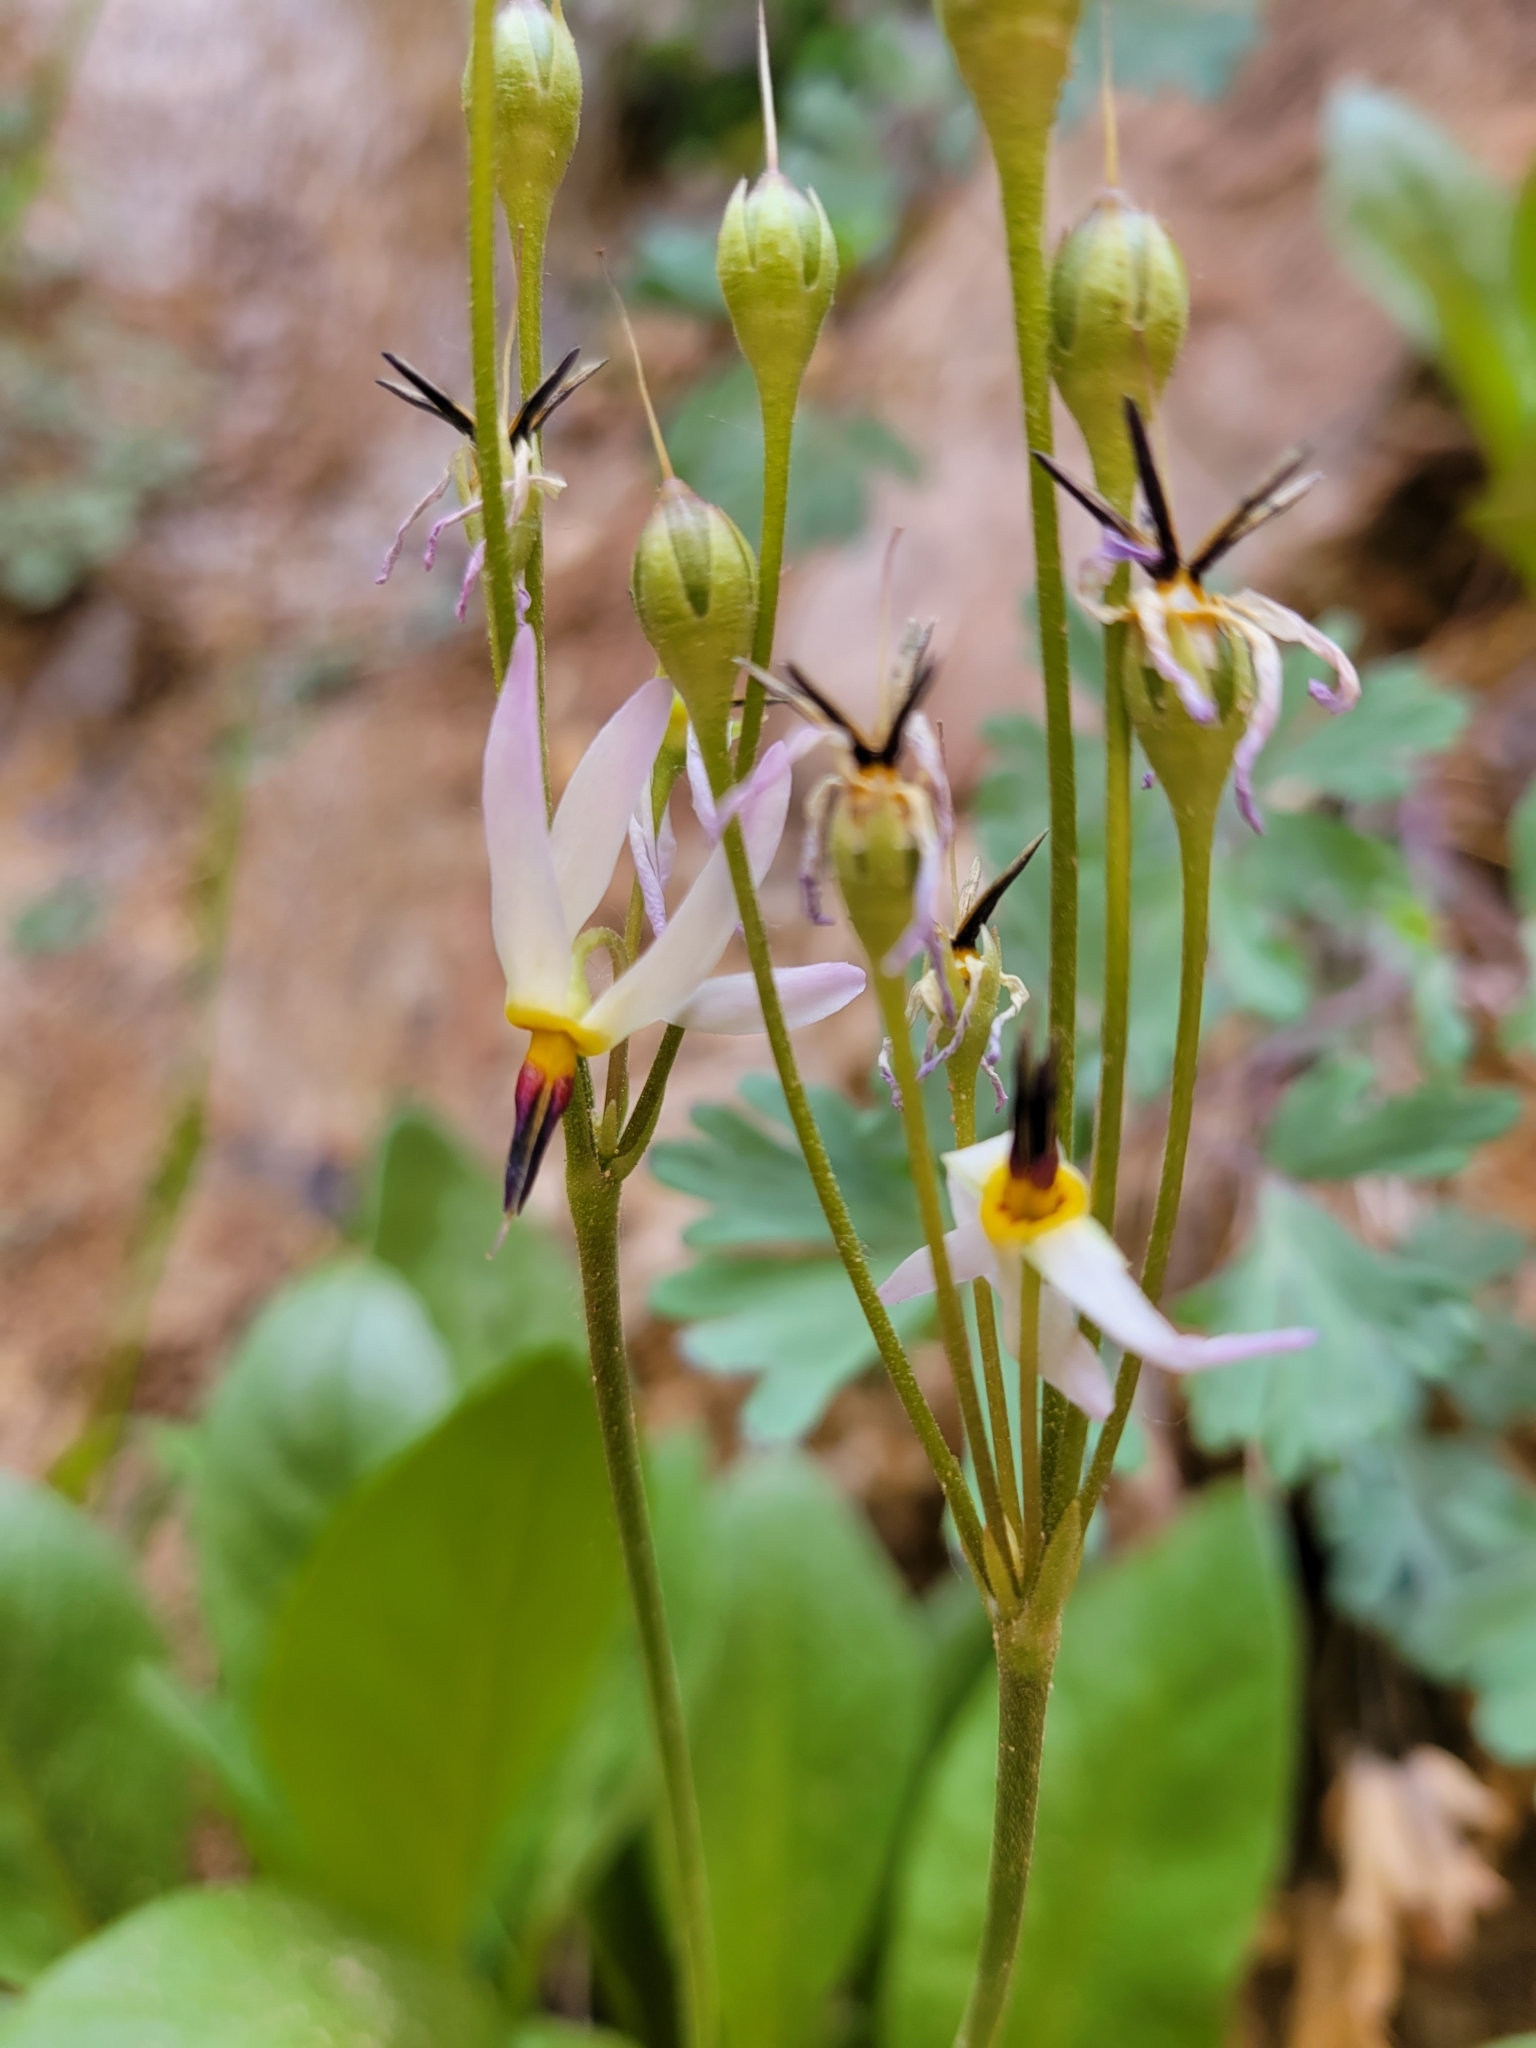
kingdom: Plantae
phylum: Tracheophyta
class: Magnoliopsida
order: Ericales
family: Primulaceae
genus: Dodecatheon
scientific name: Dodecatheon pulchellum
